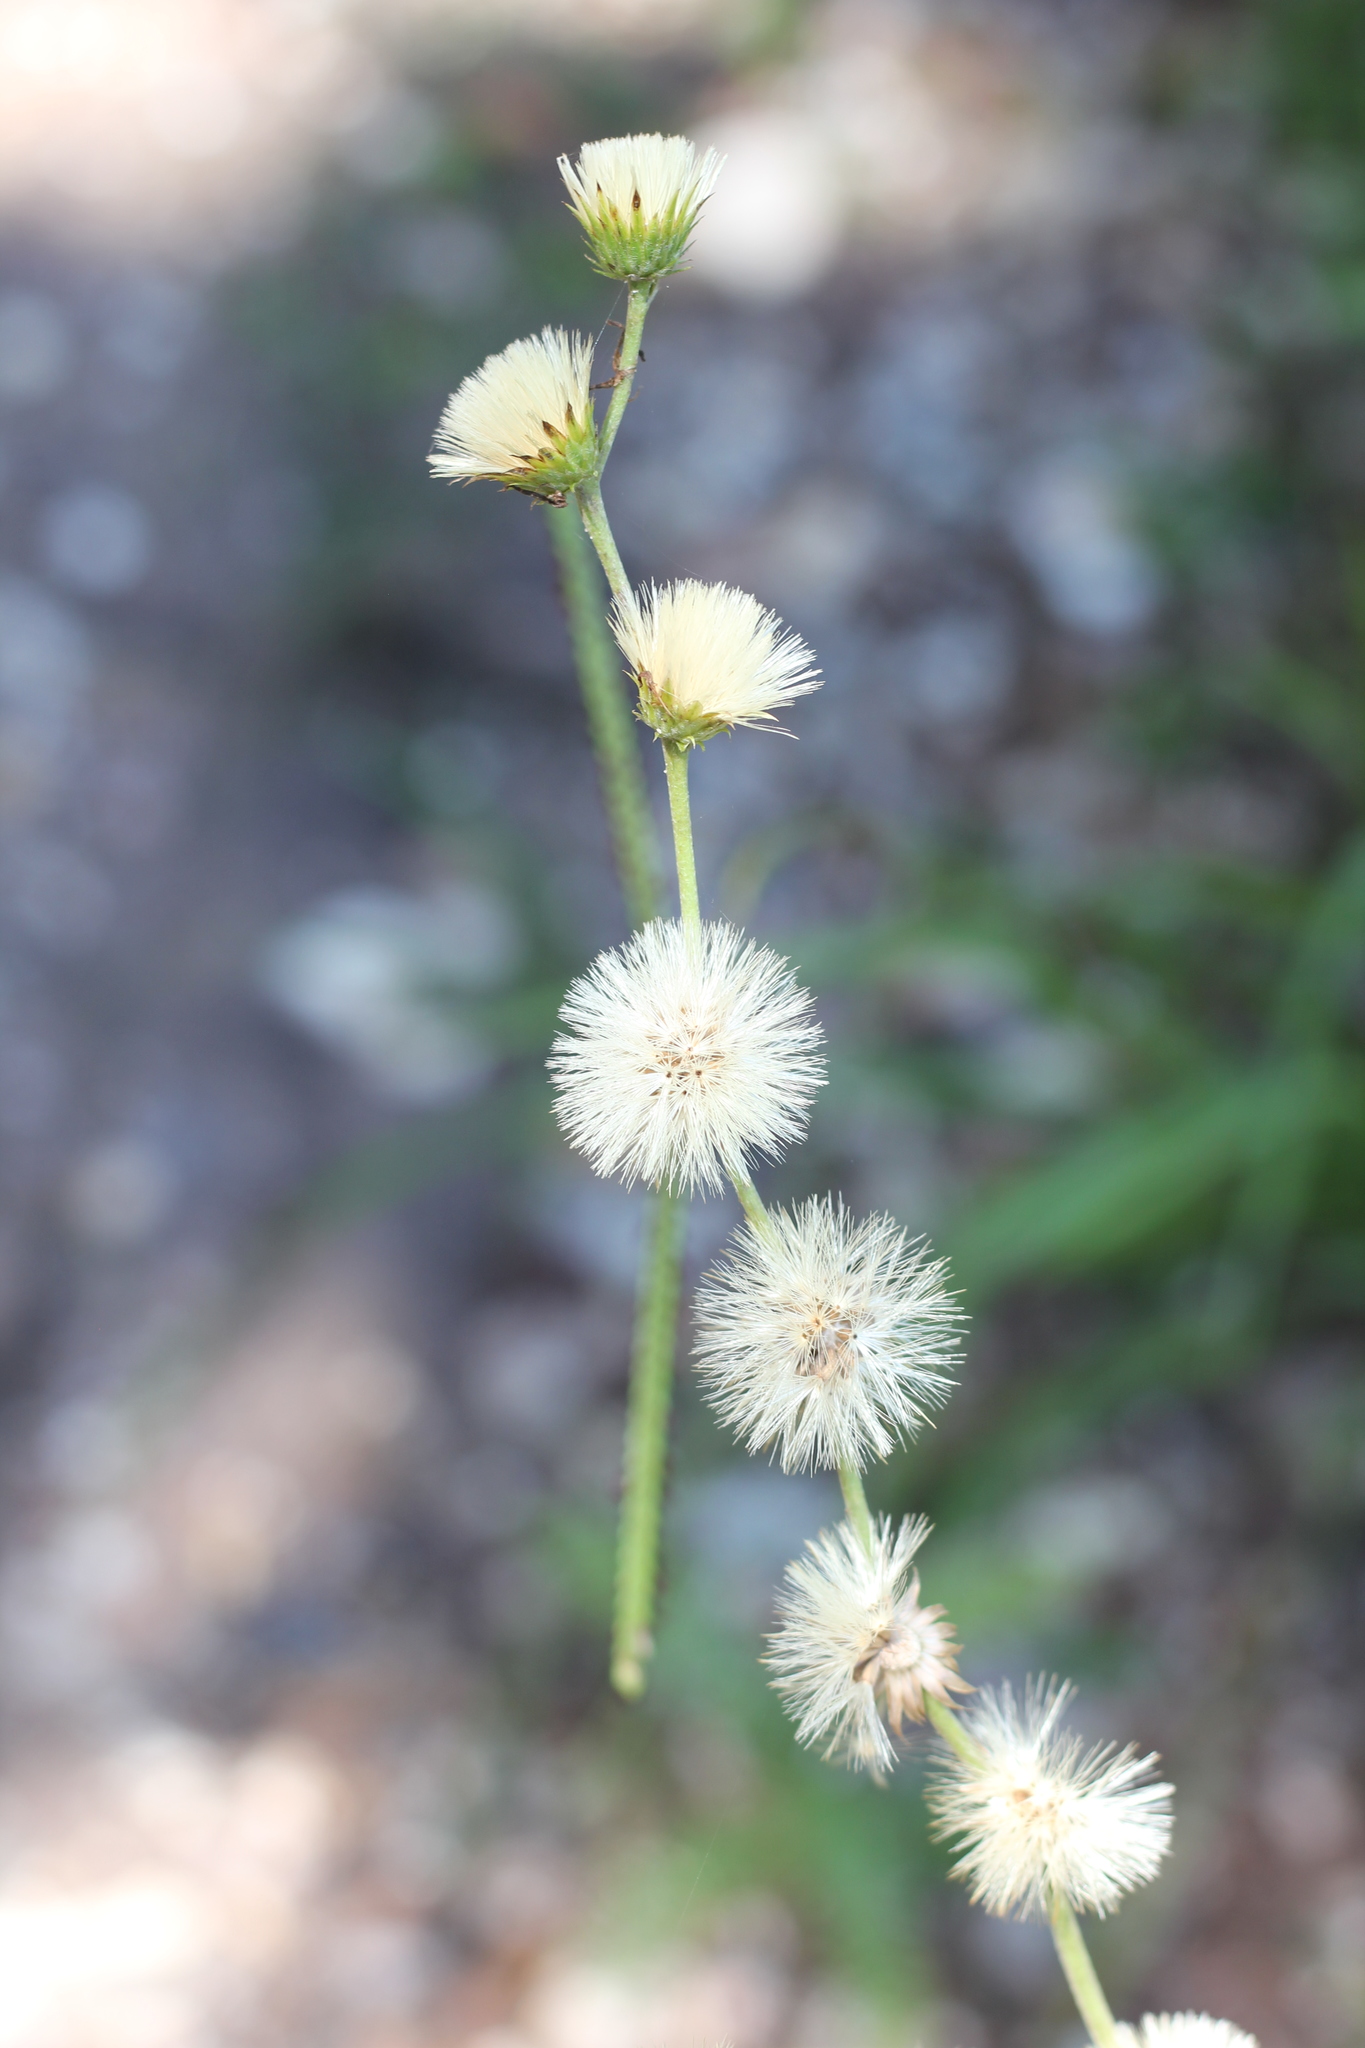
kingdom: Plantae
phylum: Tracheophyta
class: Magnoliopsida
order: Asterales
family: Asteraceae
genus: Chrysolaena
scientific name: Chrysolaena flexuosa
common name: Zig-zag vernonia
